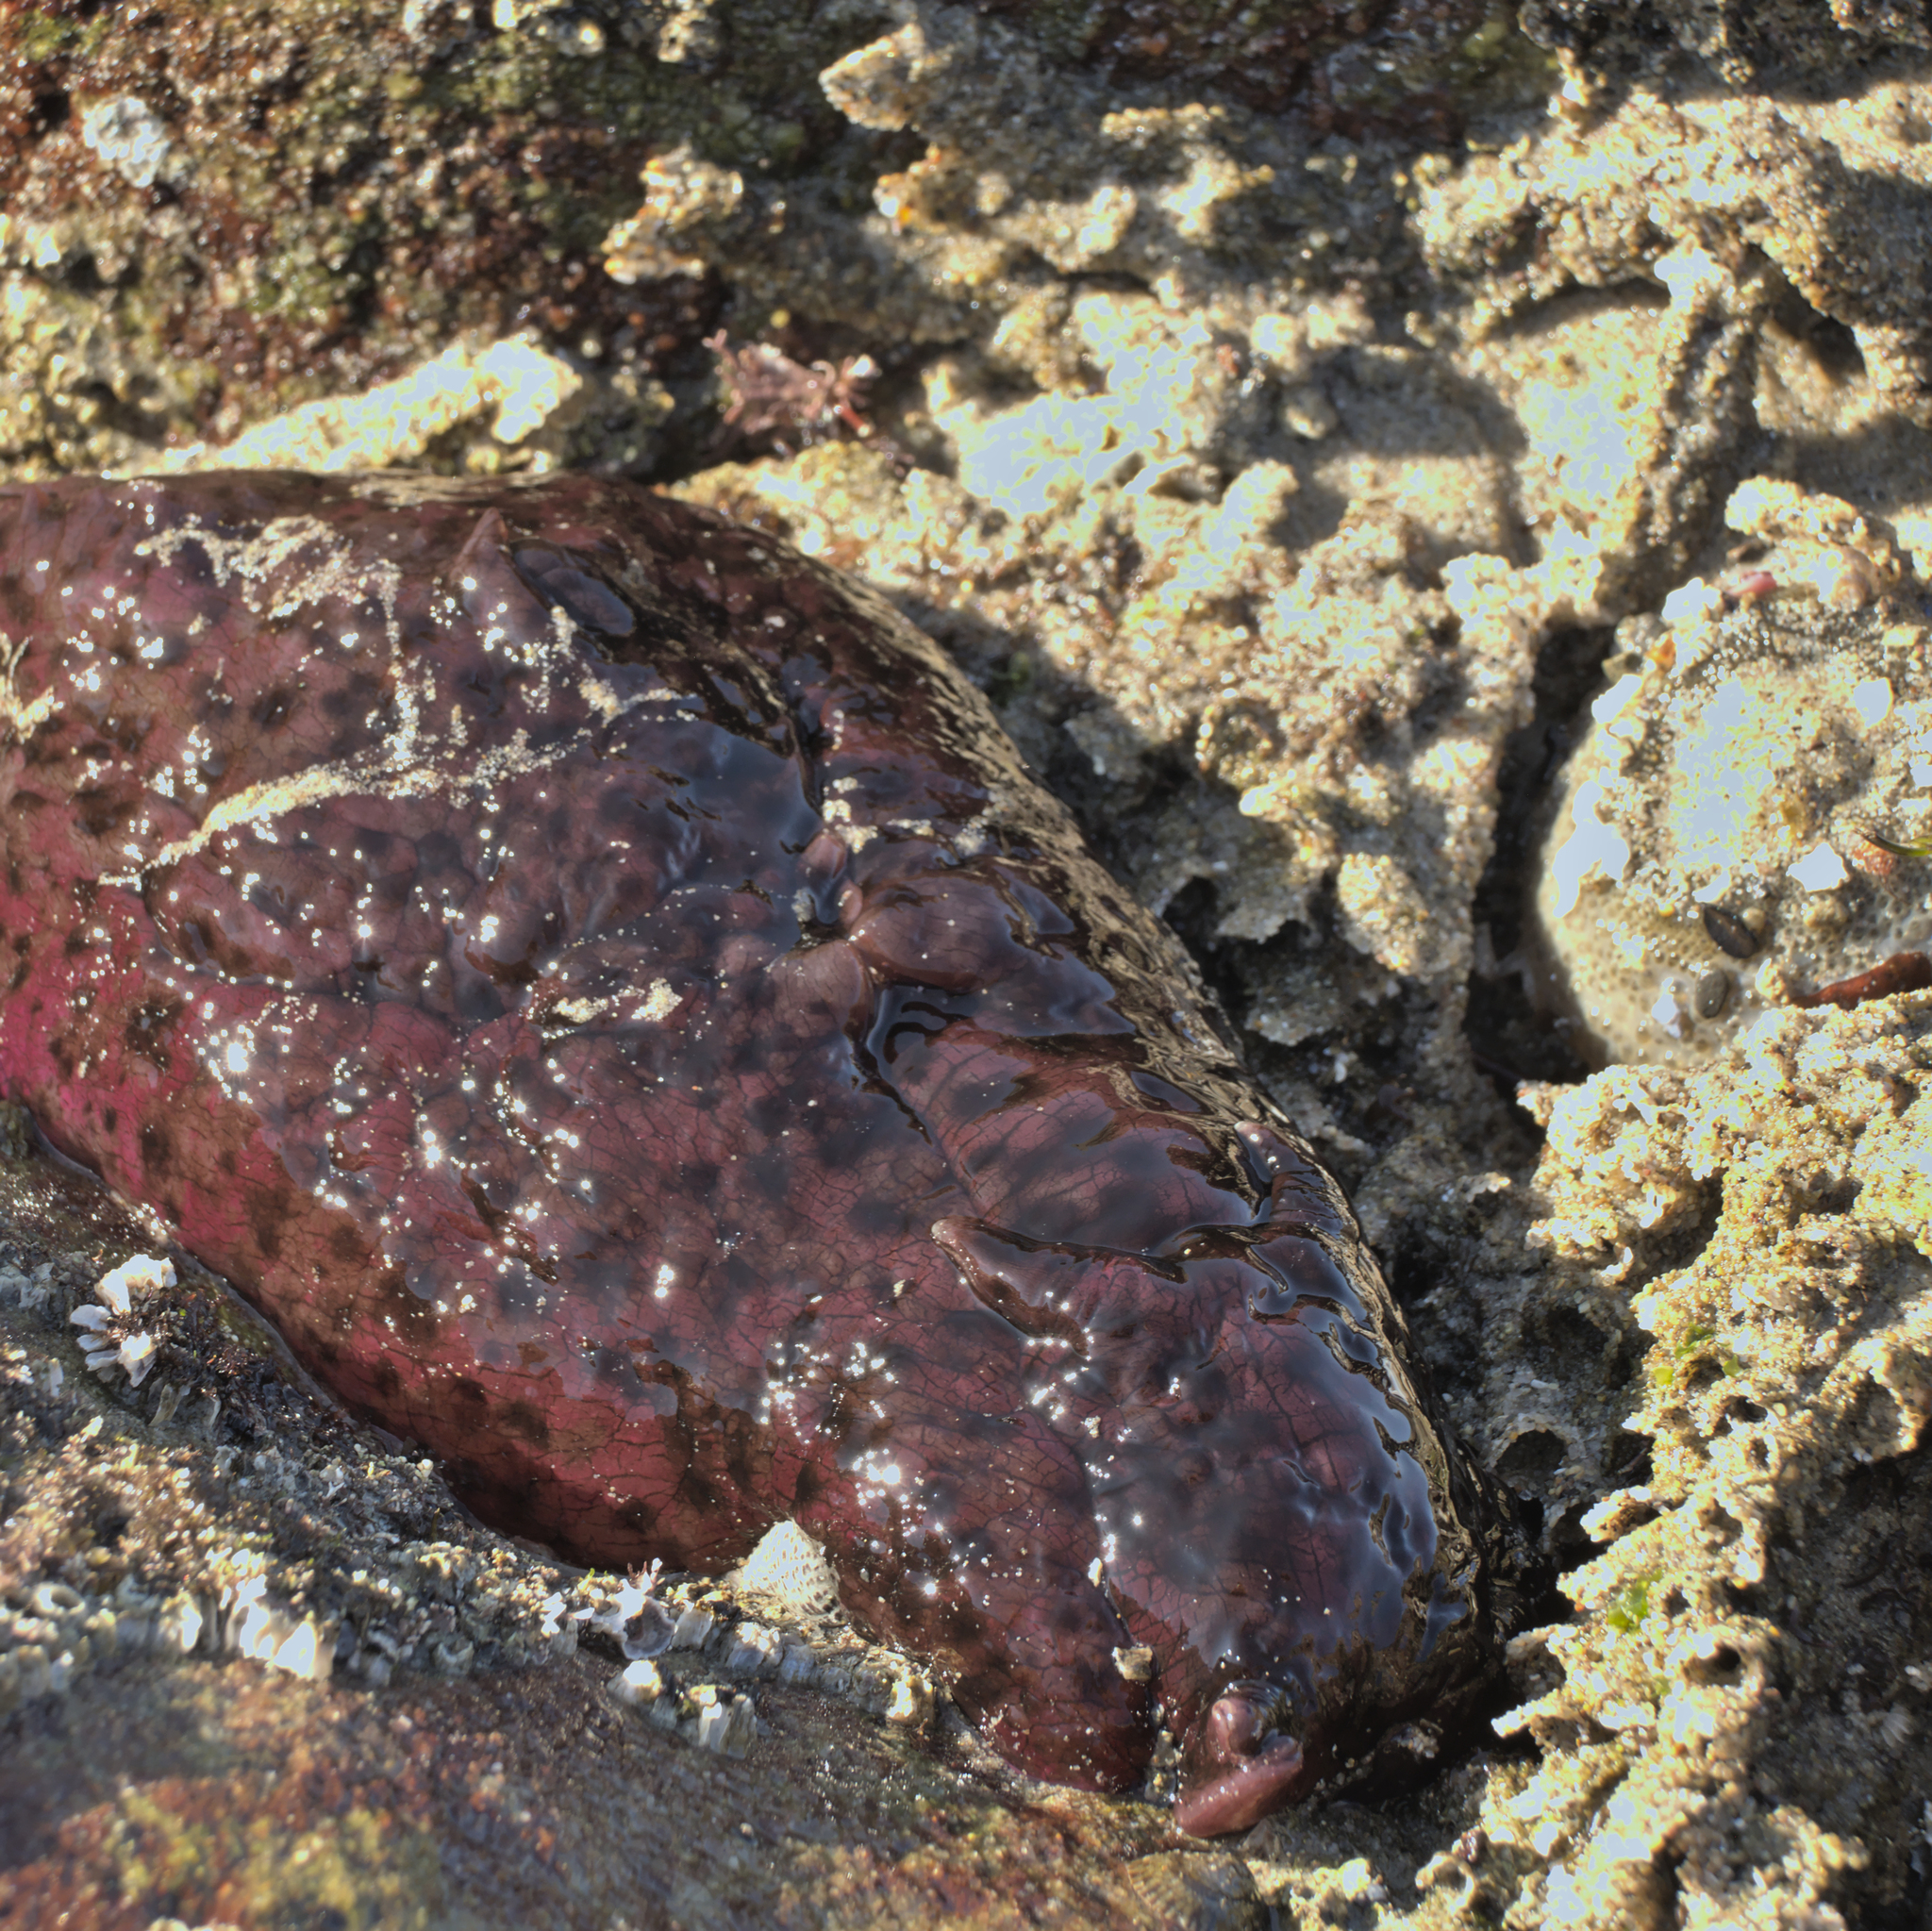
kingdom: Animalia
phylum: Mollusca
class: Gastropoda
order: Aplysiida
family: Aplysiidae
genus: Aplysia
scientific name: Aplysia californica
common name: California seahare
